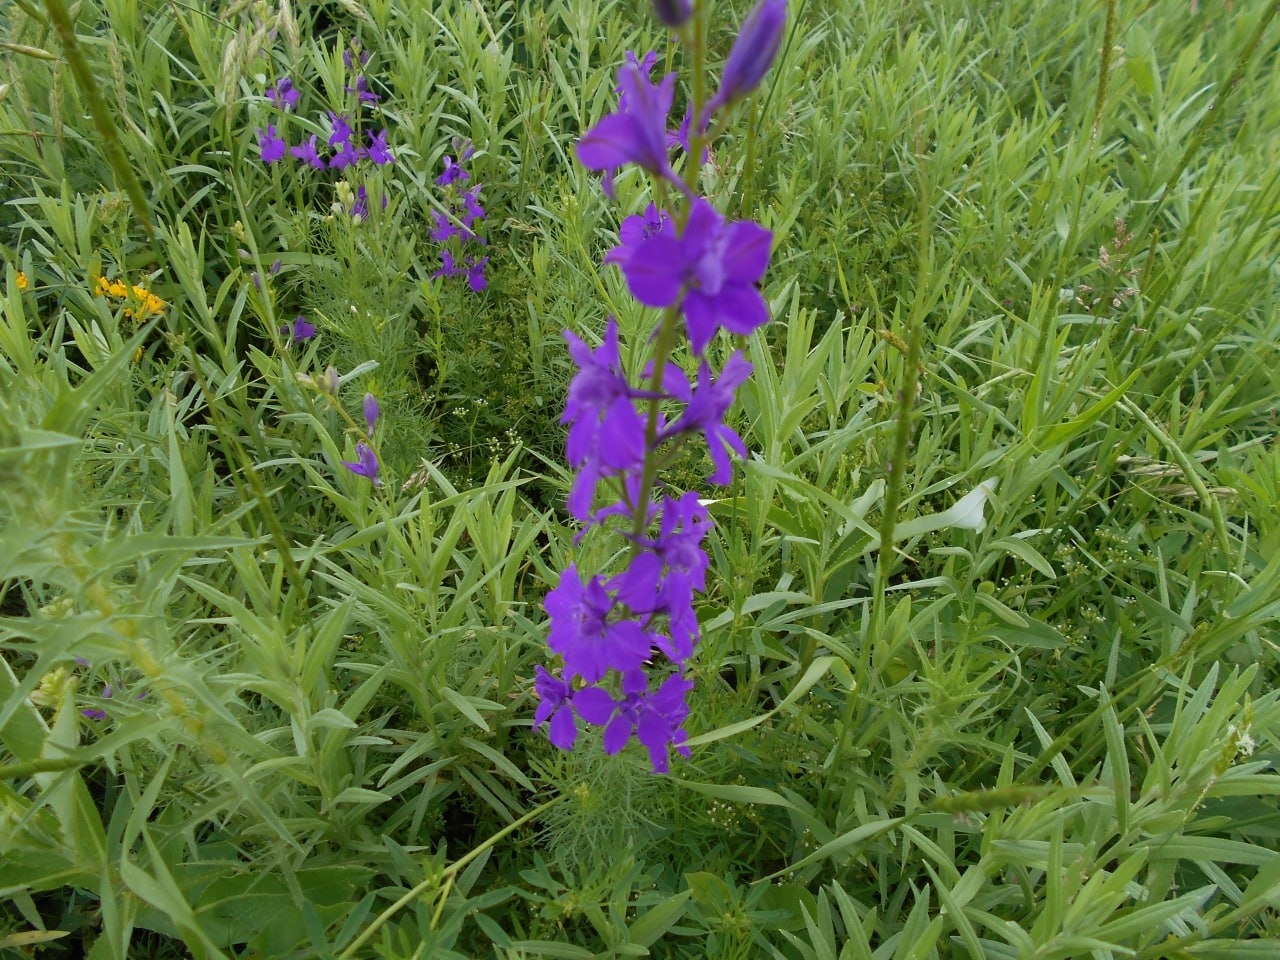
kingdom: Plantae
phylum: Tracheophyta
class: Magnoliopsida
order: Ranunculales
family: Ranunculaceae
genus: Delphinium
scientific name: Delphinium ajacis
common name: Doubtful knight's-spur
